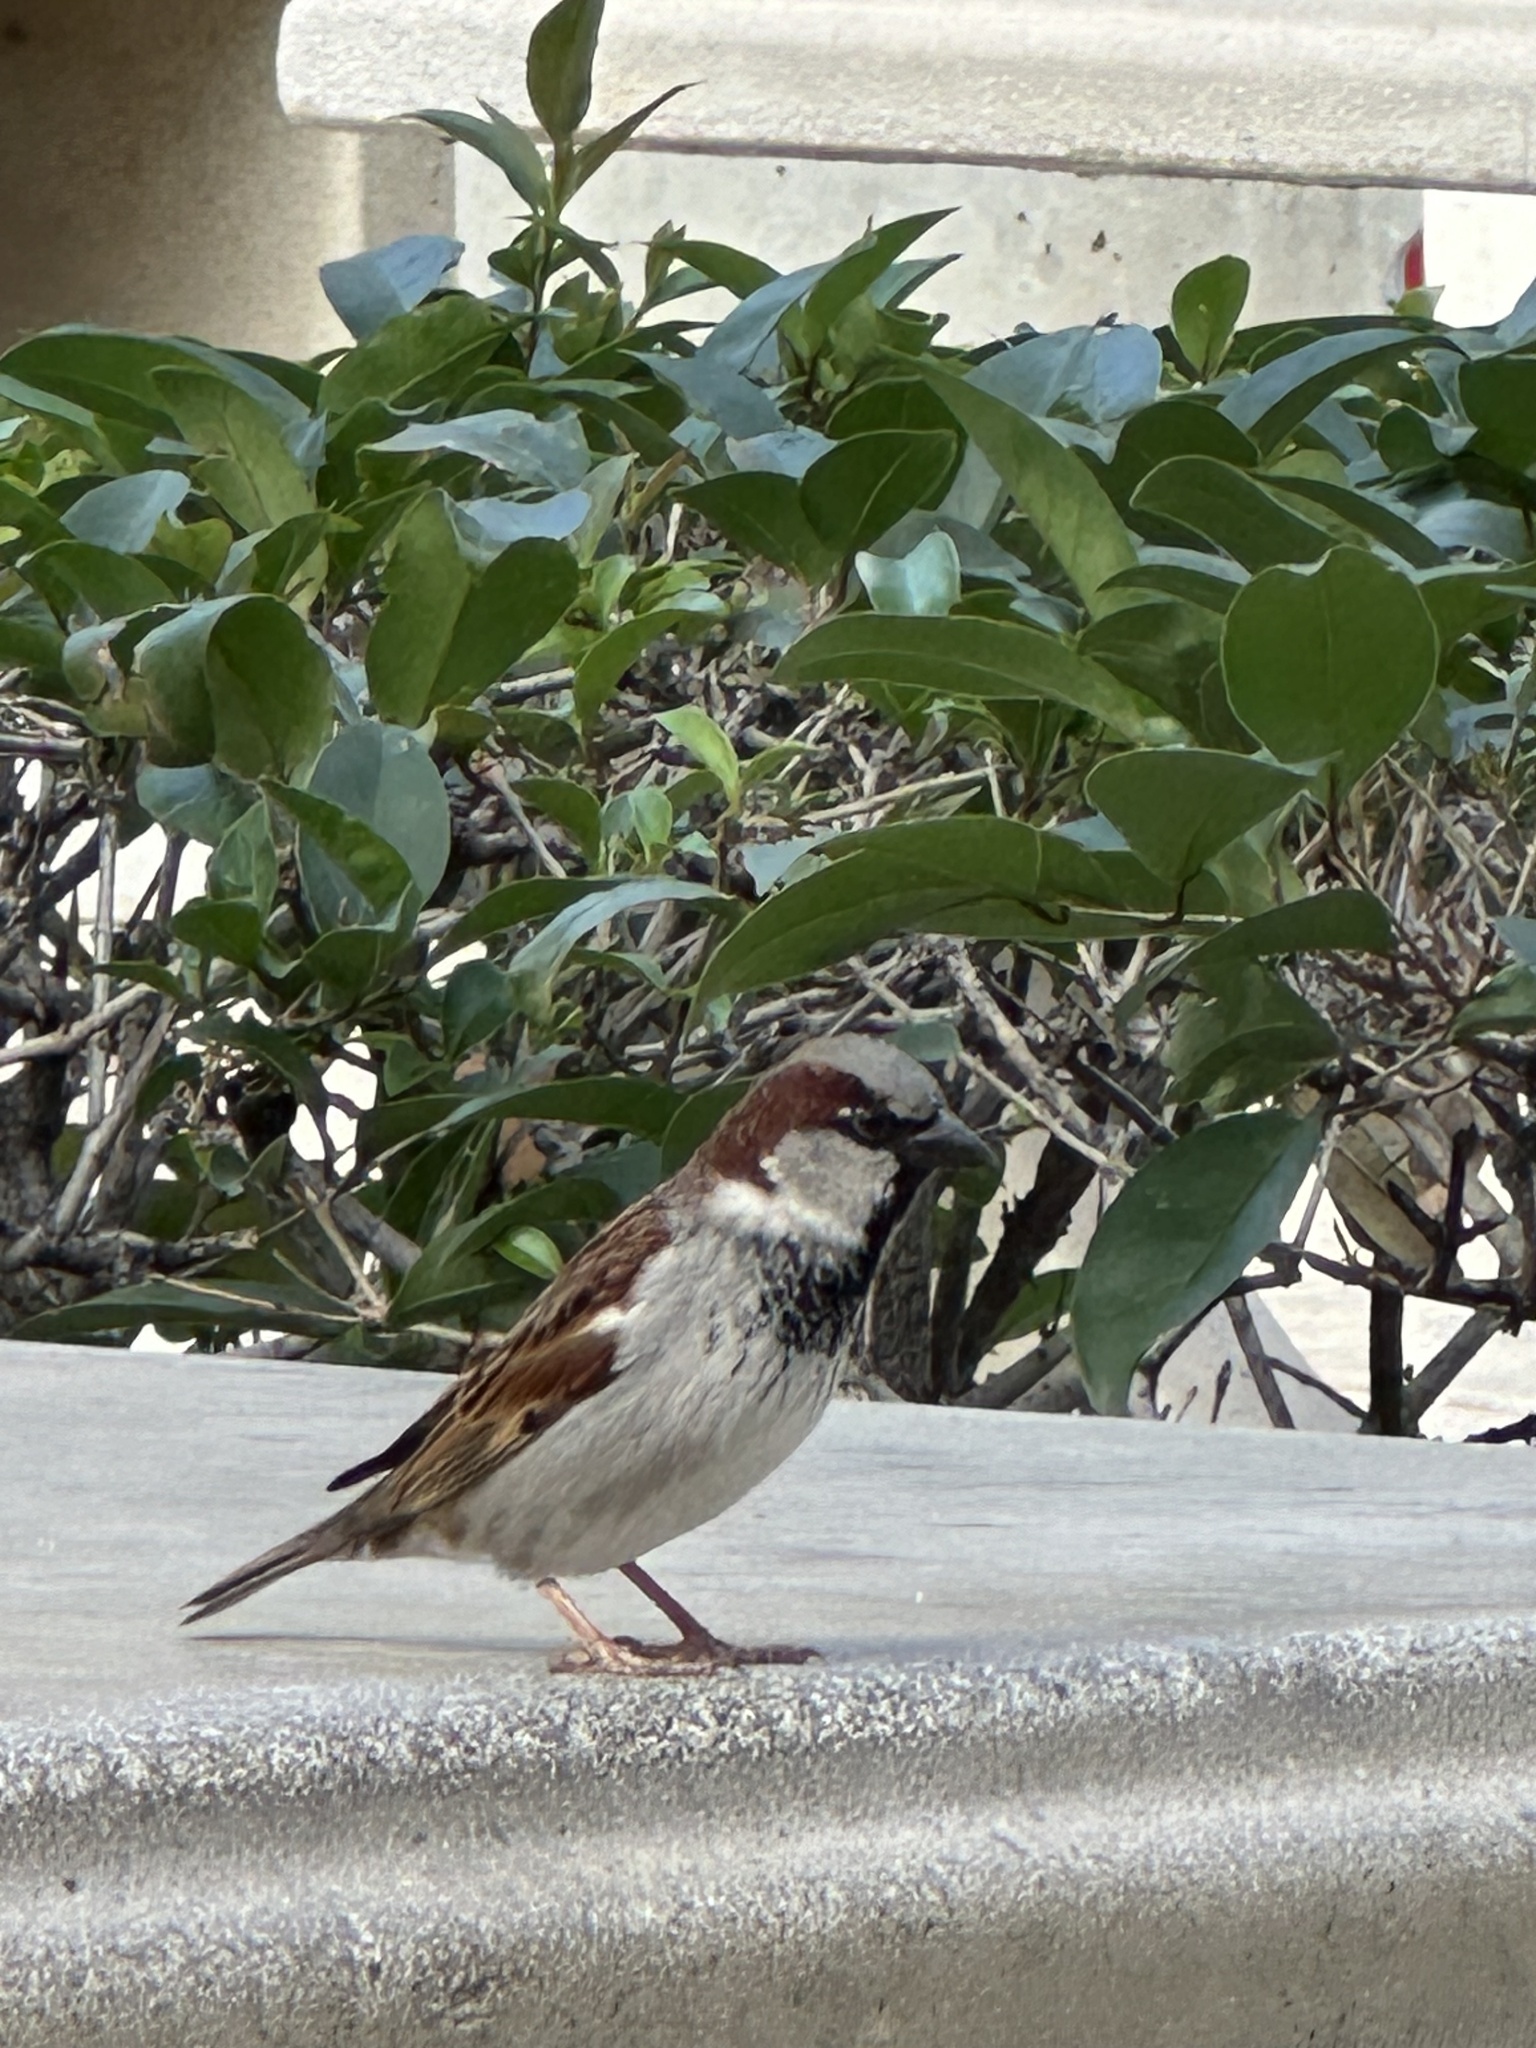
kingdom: Animalia
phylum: Chordata
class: Aves
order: Passeriformes
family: Passeridae
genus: Passer
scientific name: Passer domesticus
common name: House sparrow
